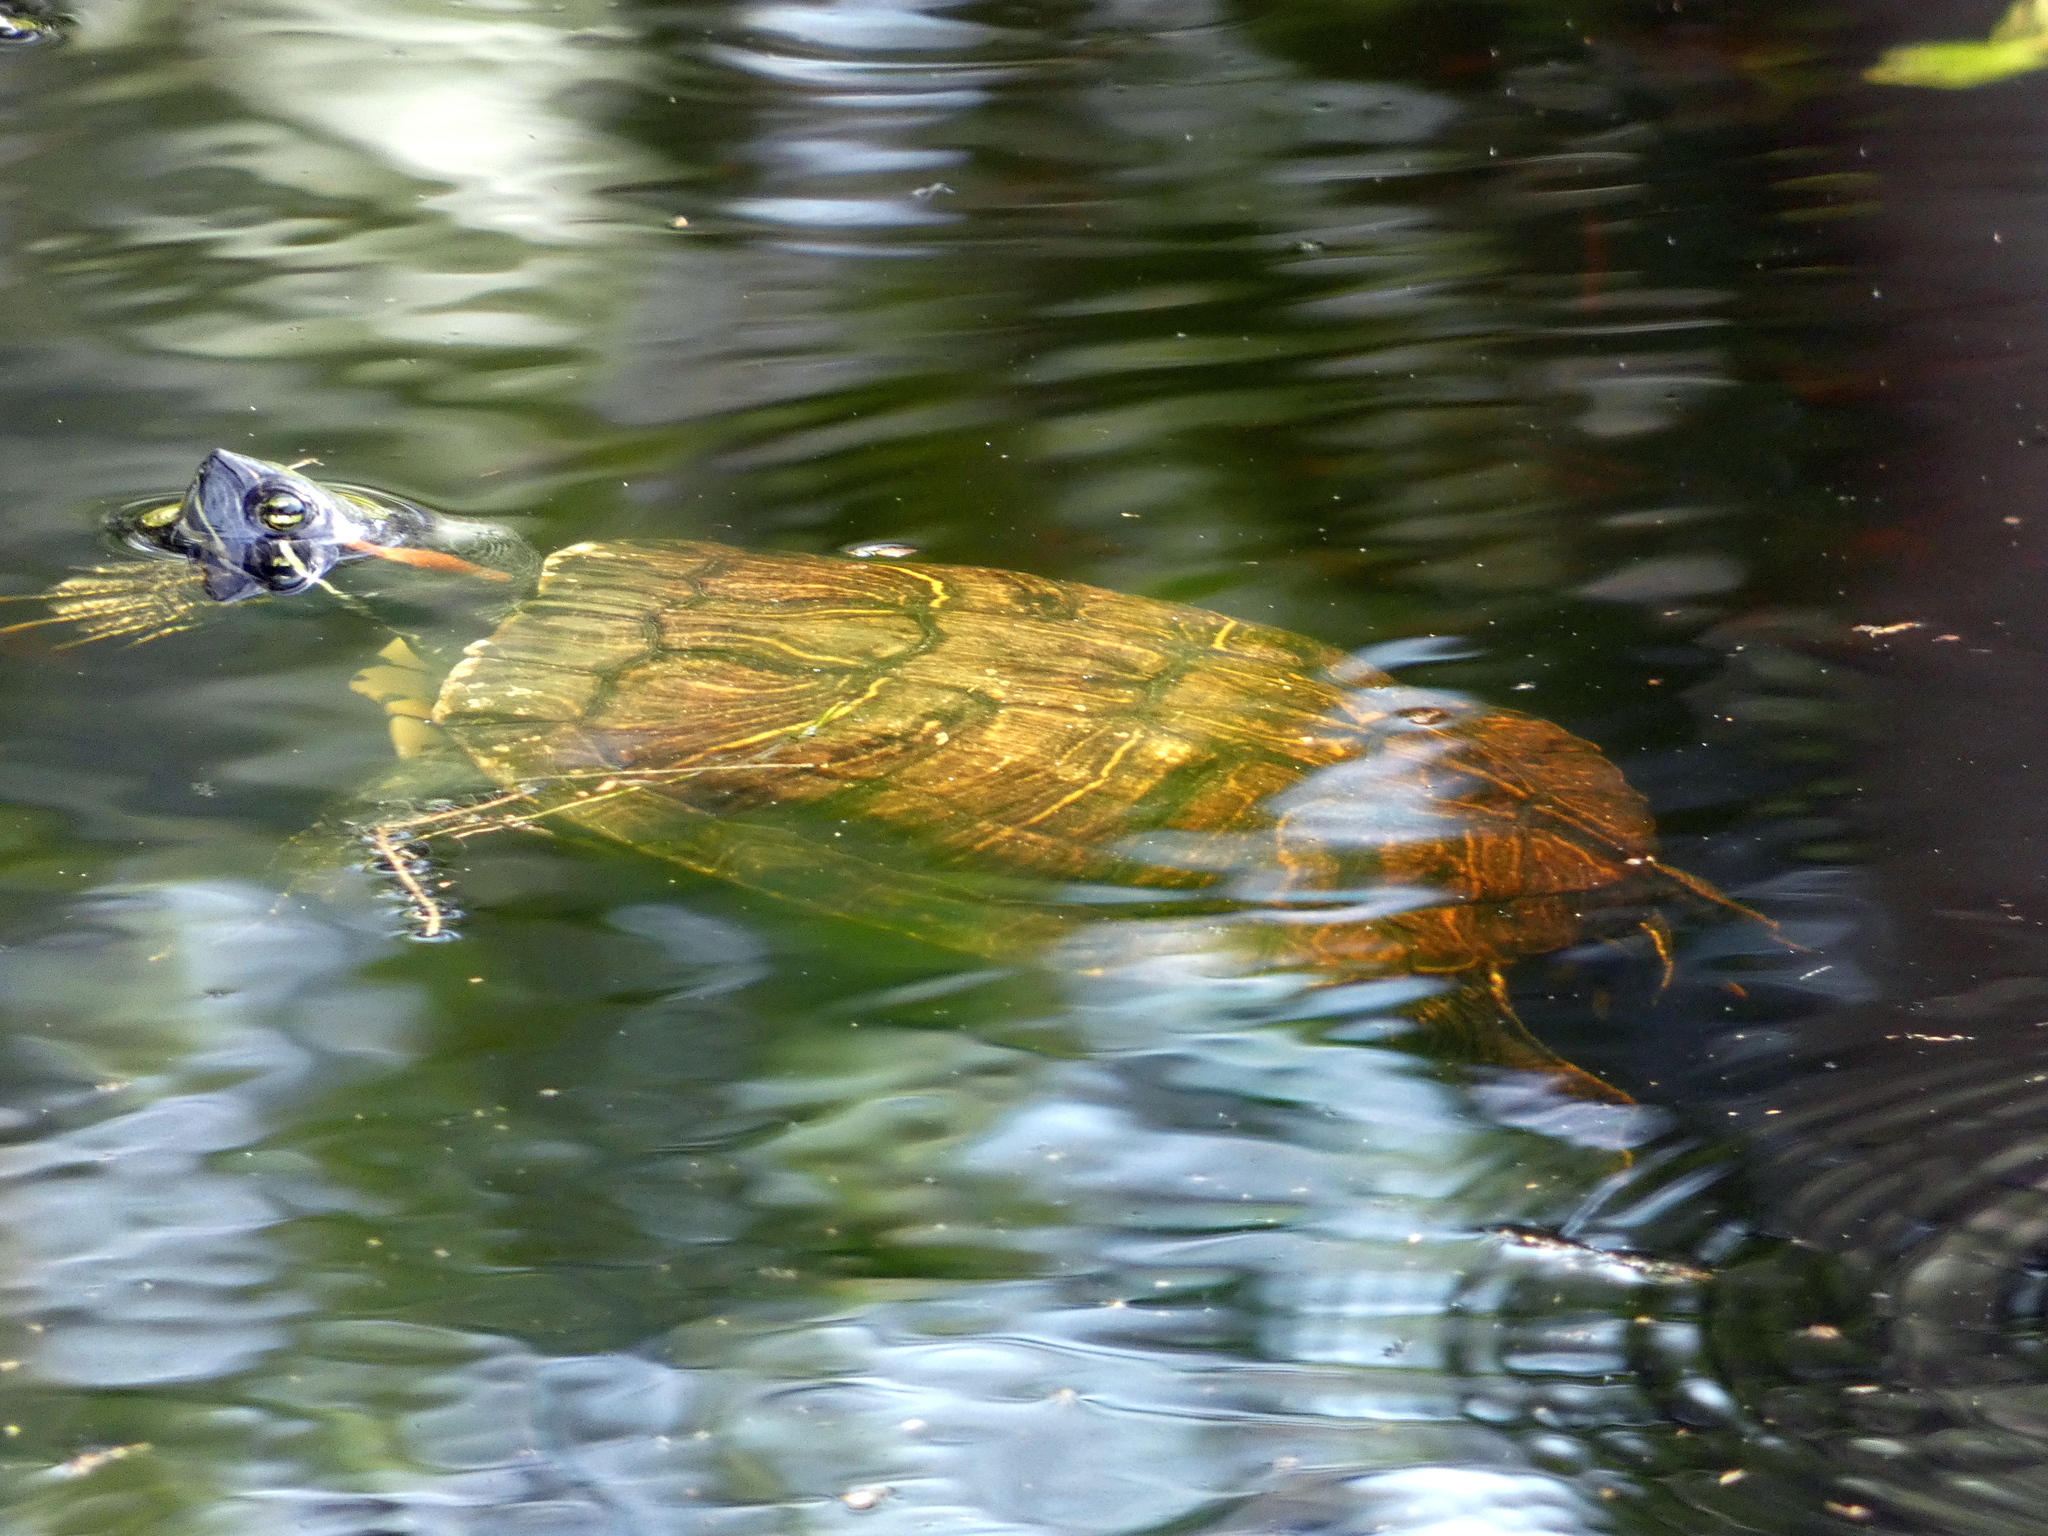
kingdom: Animalia
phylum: Chordata
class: Testudines
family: Emydidae
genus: Trachemys
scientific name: Trachemys scripta
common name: Slider
